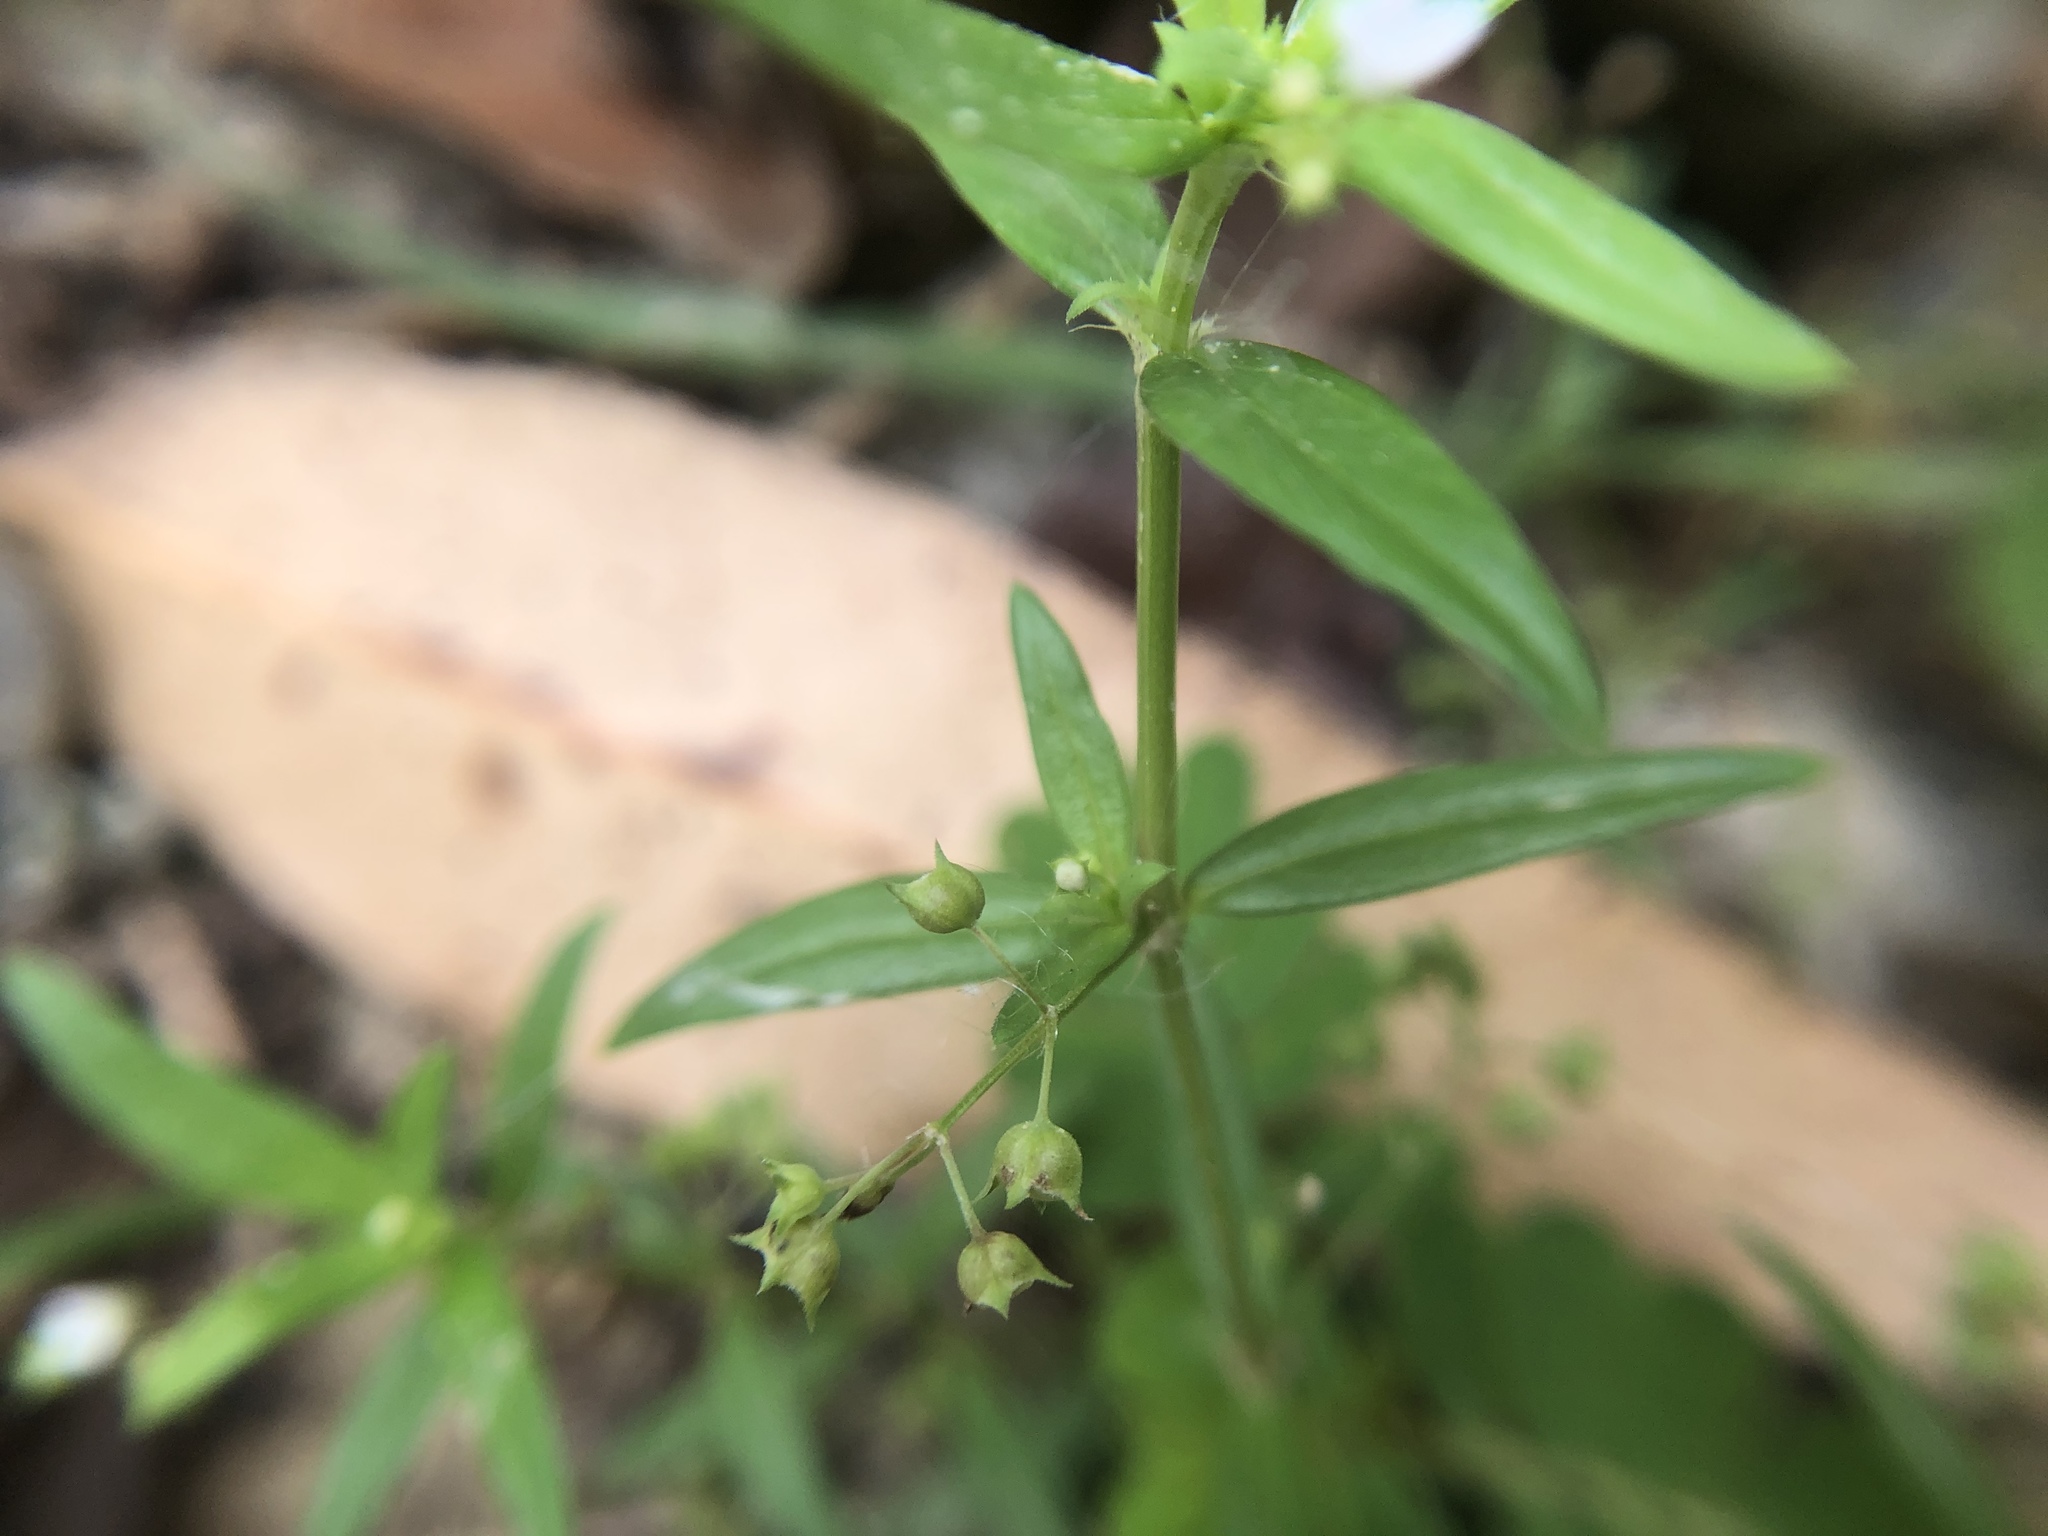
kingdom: Plantae
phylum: Tracheophyta
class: Magnoliopsida
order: Gentianales
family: Rubiaceae
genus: Oldenlandia
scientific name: Oldenlandia corymbosa
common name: Flat-top mille graines
